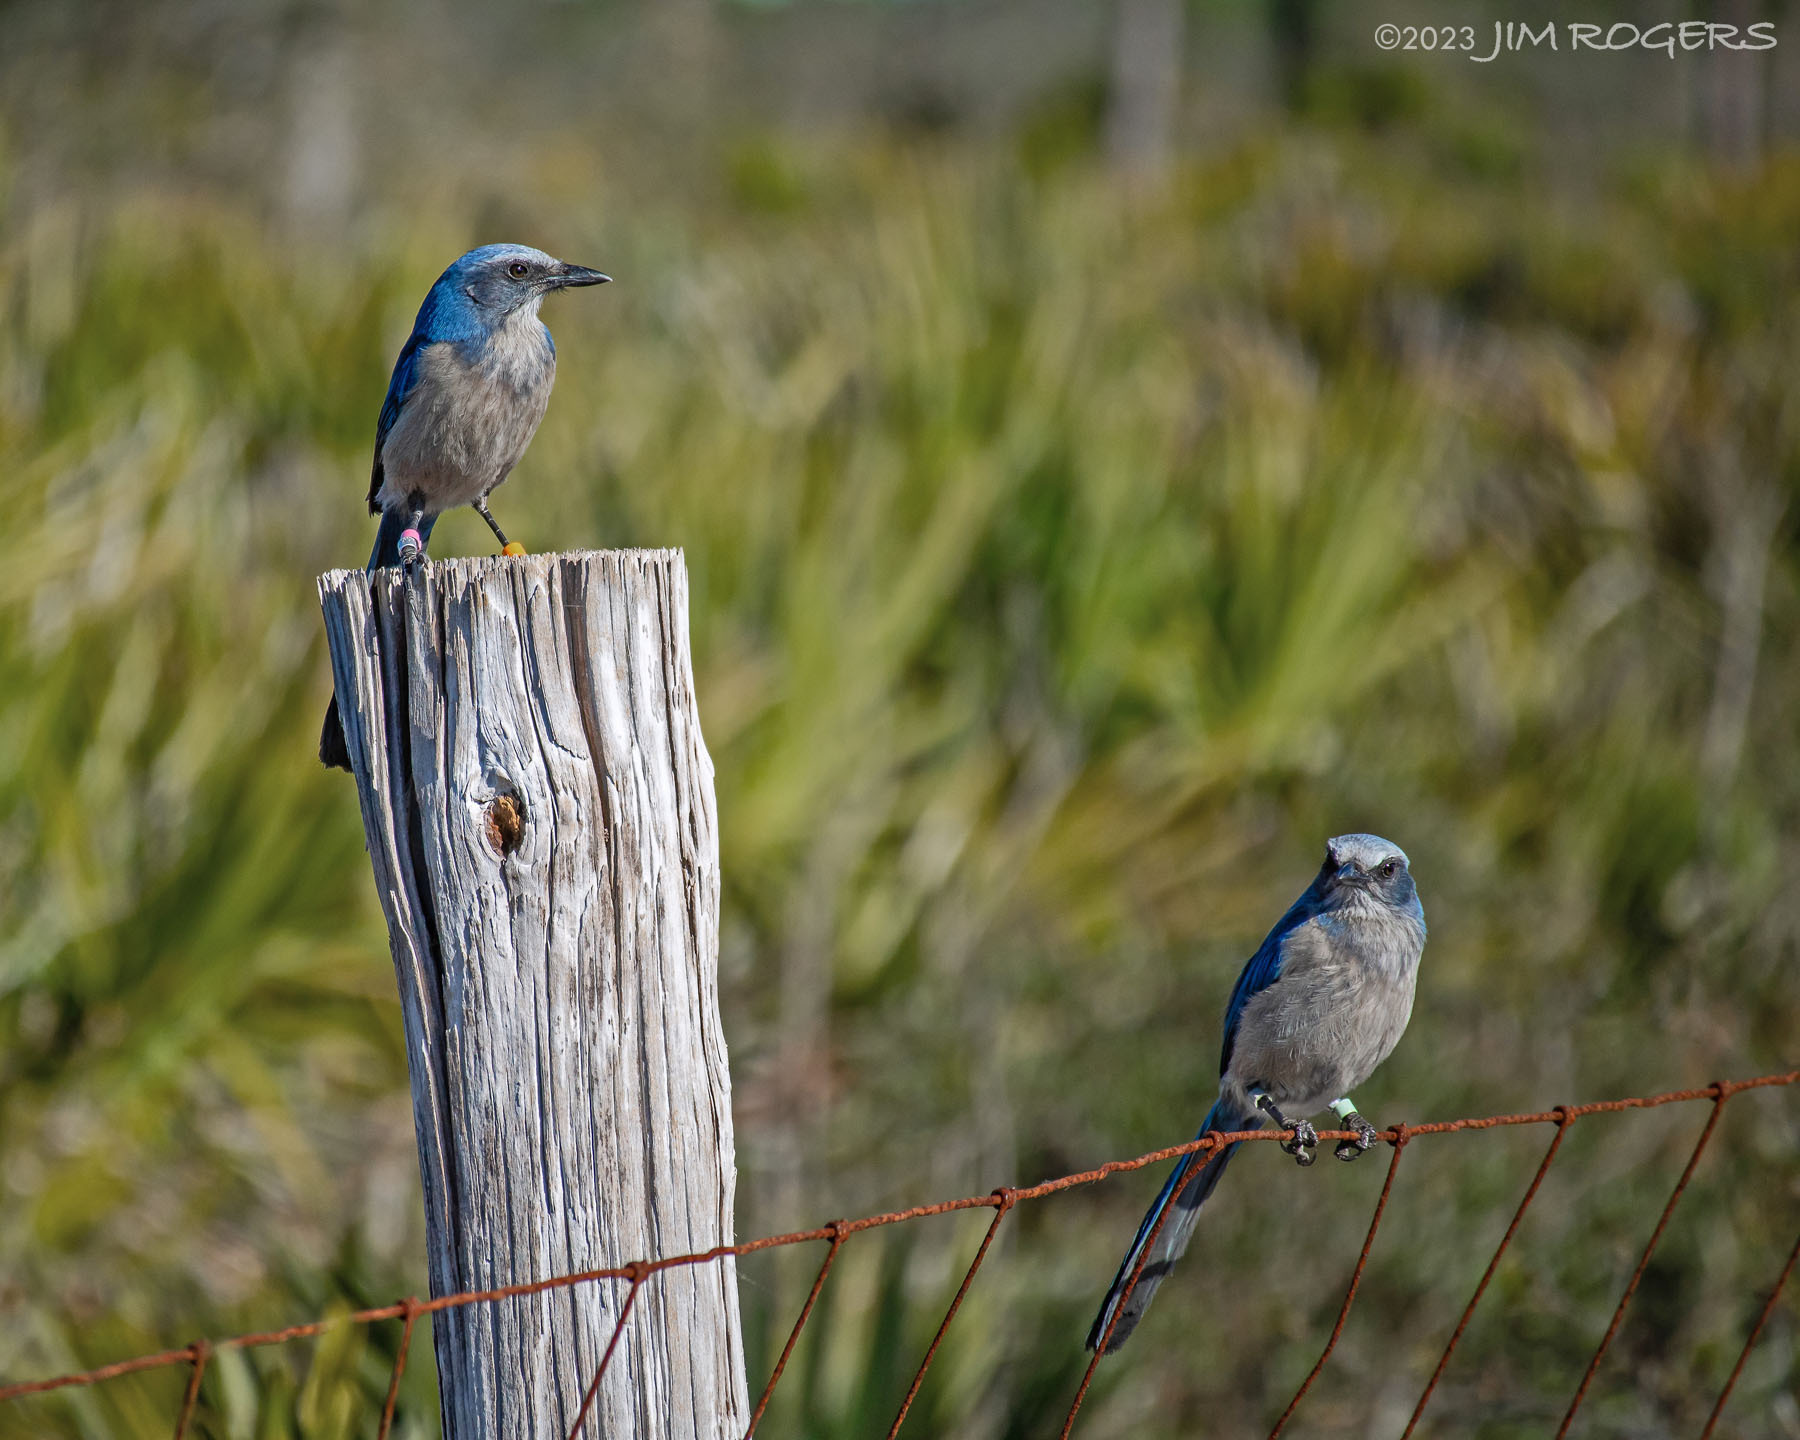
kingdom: Animalia
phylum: Chordata
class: Aves
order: Passeriformes
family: Corvidae
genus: Aphelocoma
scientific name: Aphelocoma coerulescens
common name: Florida scrub jay
